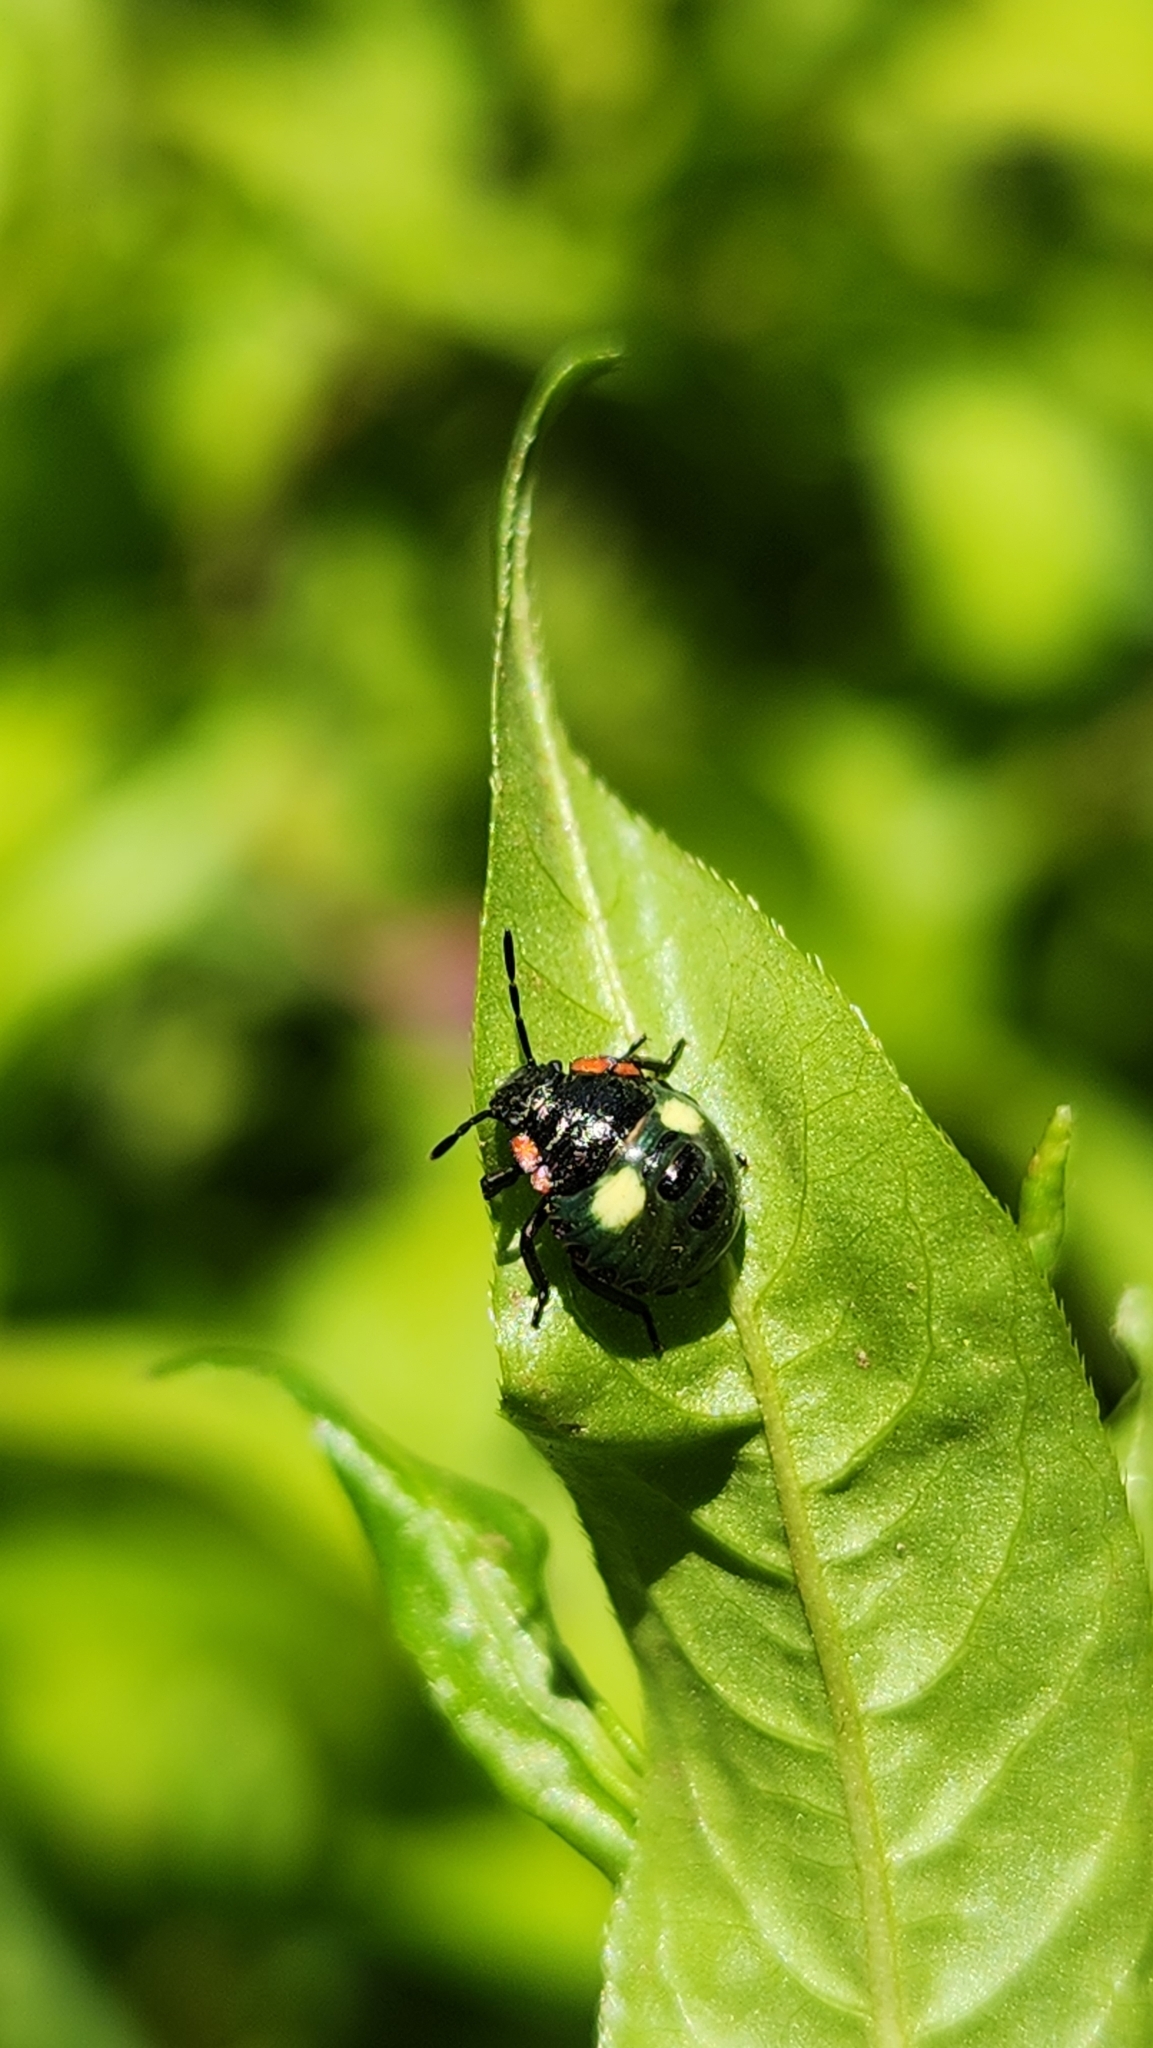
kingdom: Animalia
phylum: Arthropoda
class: Insecta
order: Hemiptera
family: Pentatomidae
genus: Chinavia
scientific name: Chinavia perezi
